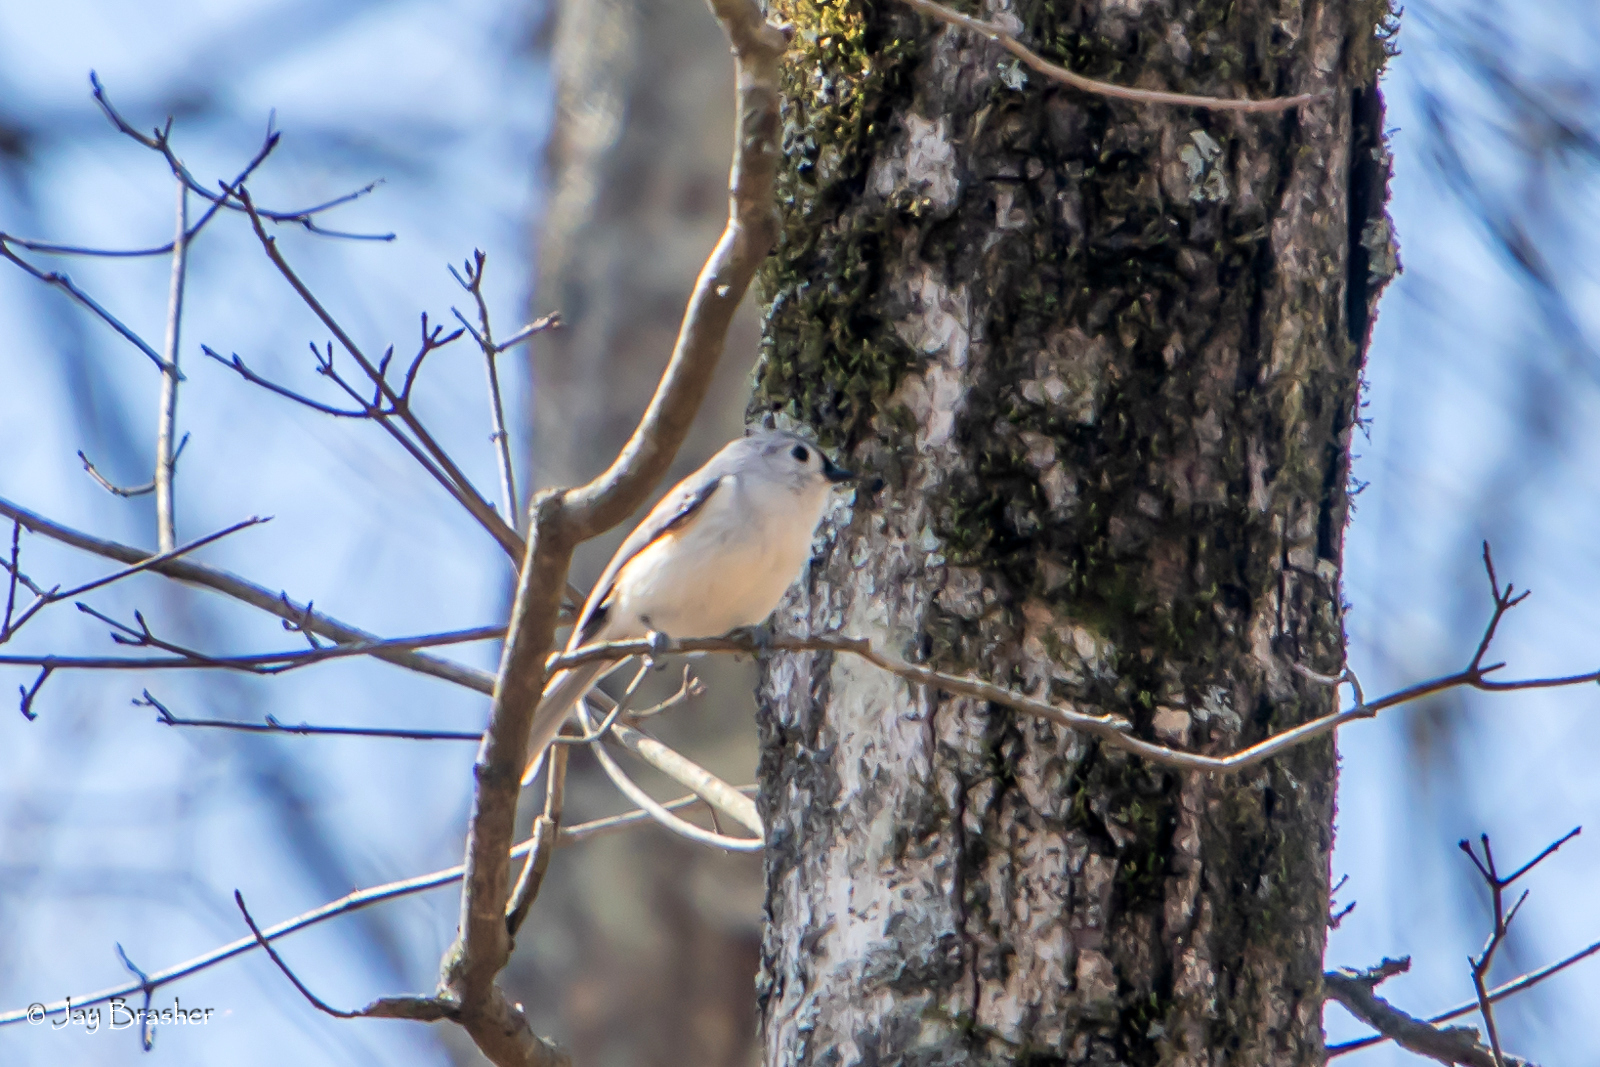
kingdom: Animalia
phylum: Chordata
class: Aves
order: Passeriformes
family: Paridae
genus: Baeolophus
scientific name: Baeolophus bicolor
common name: Tufted titmouse
